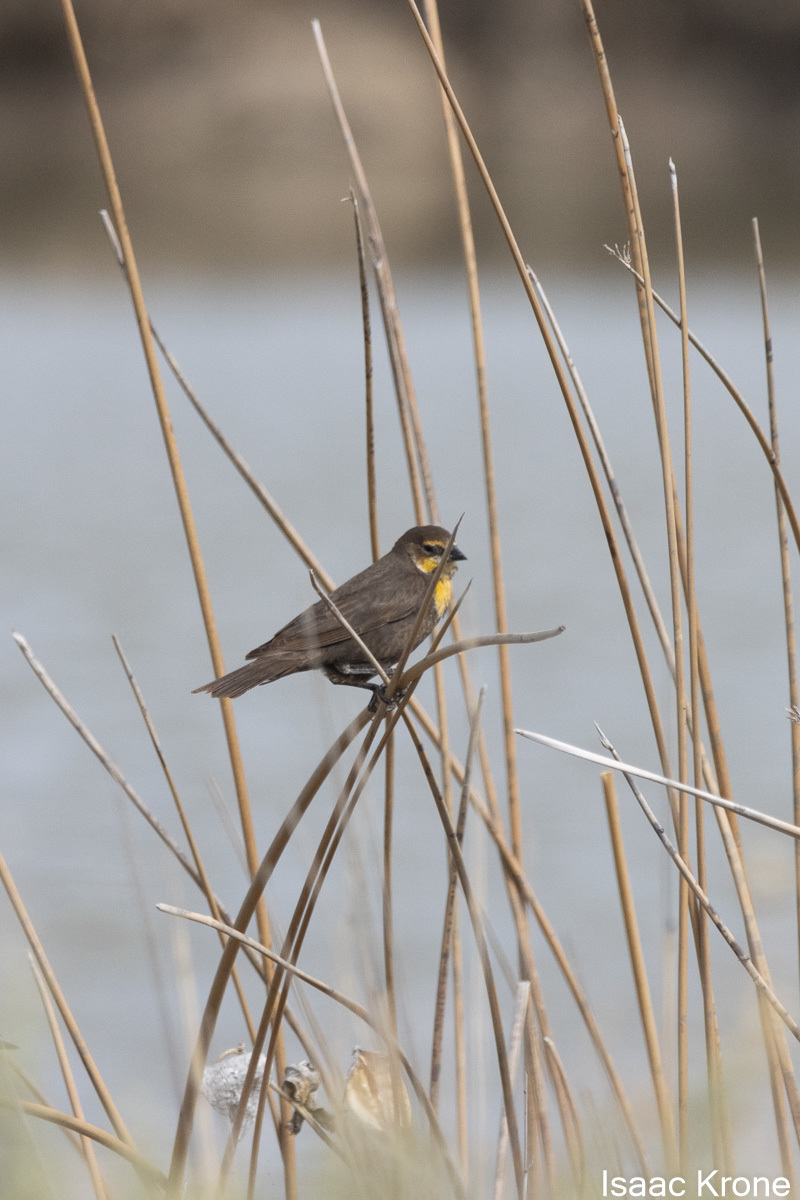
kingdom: Animalia
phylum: Chordata
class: Aves
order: Passeriformes
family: Icteridae
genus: Xanthocephalus
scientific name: Xanthocephalus xanthocephalus
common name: Yellow-headed blackbird
